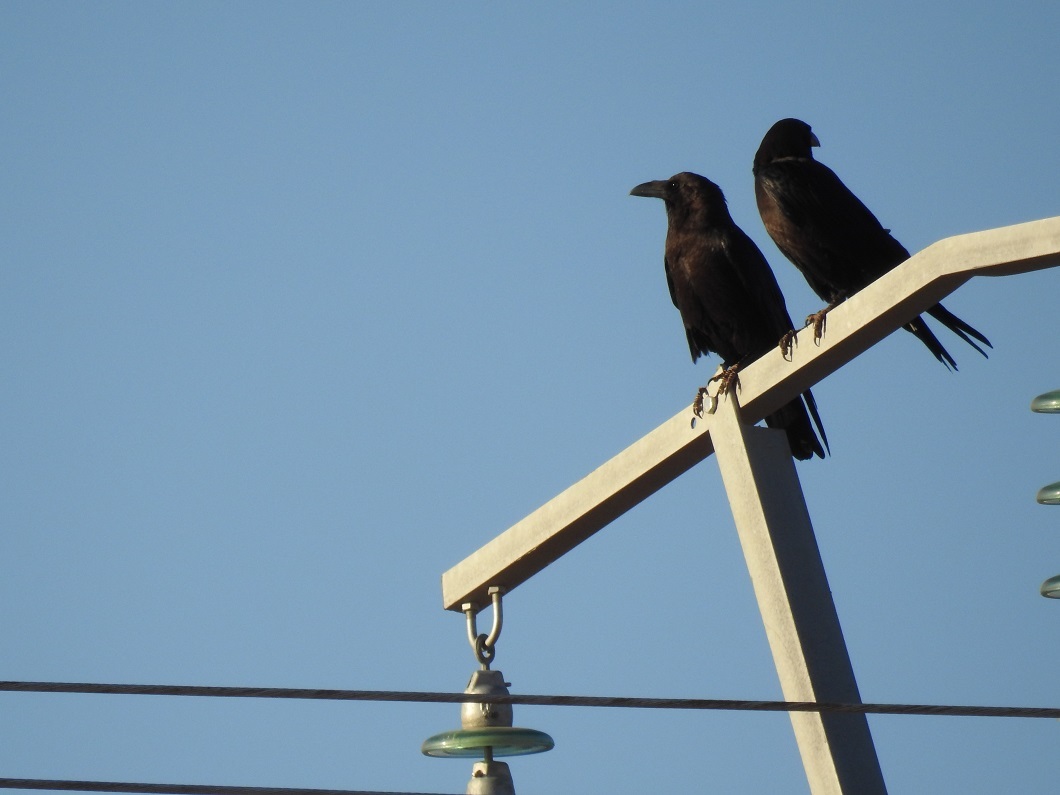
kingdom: Animalia
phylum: Chordata
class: Aves
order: Passeriformes
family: Corvidae
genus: Corvus
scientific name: Corvus ruficollis
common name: Brown-necked raven
